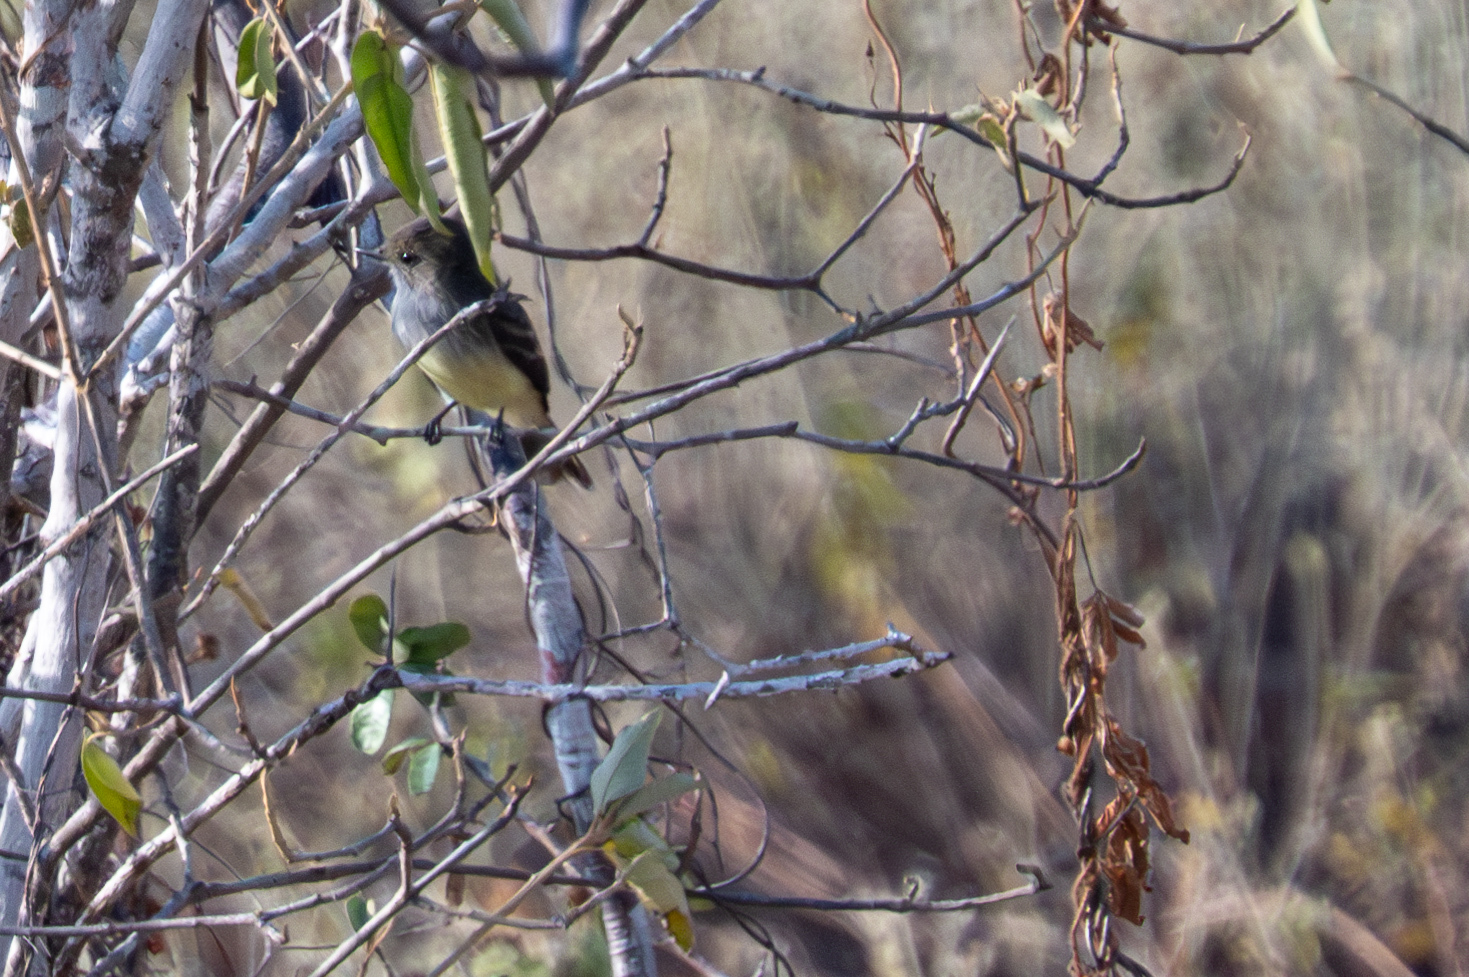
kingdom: Animalia
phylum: Chordata
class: Aves
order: Passeriformes
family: Tyrannidae
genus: Myiarchus
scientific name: Myiarchus magnirostris
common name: Galapagos flycatcher
